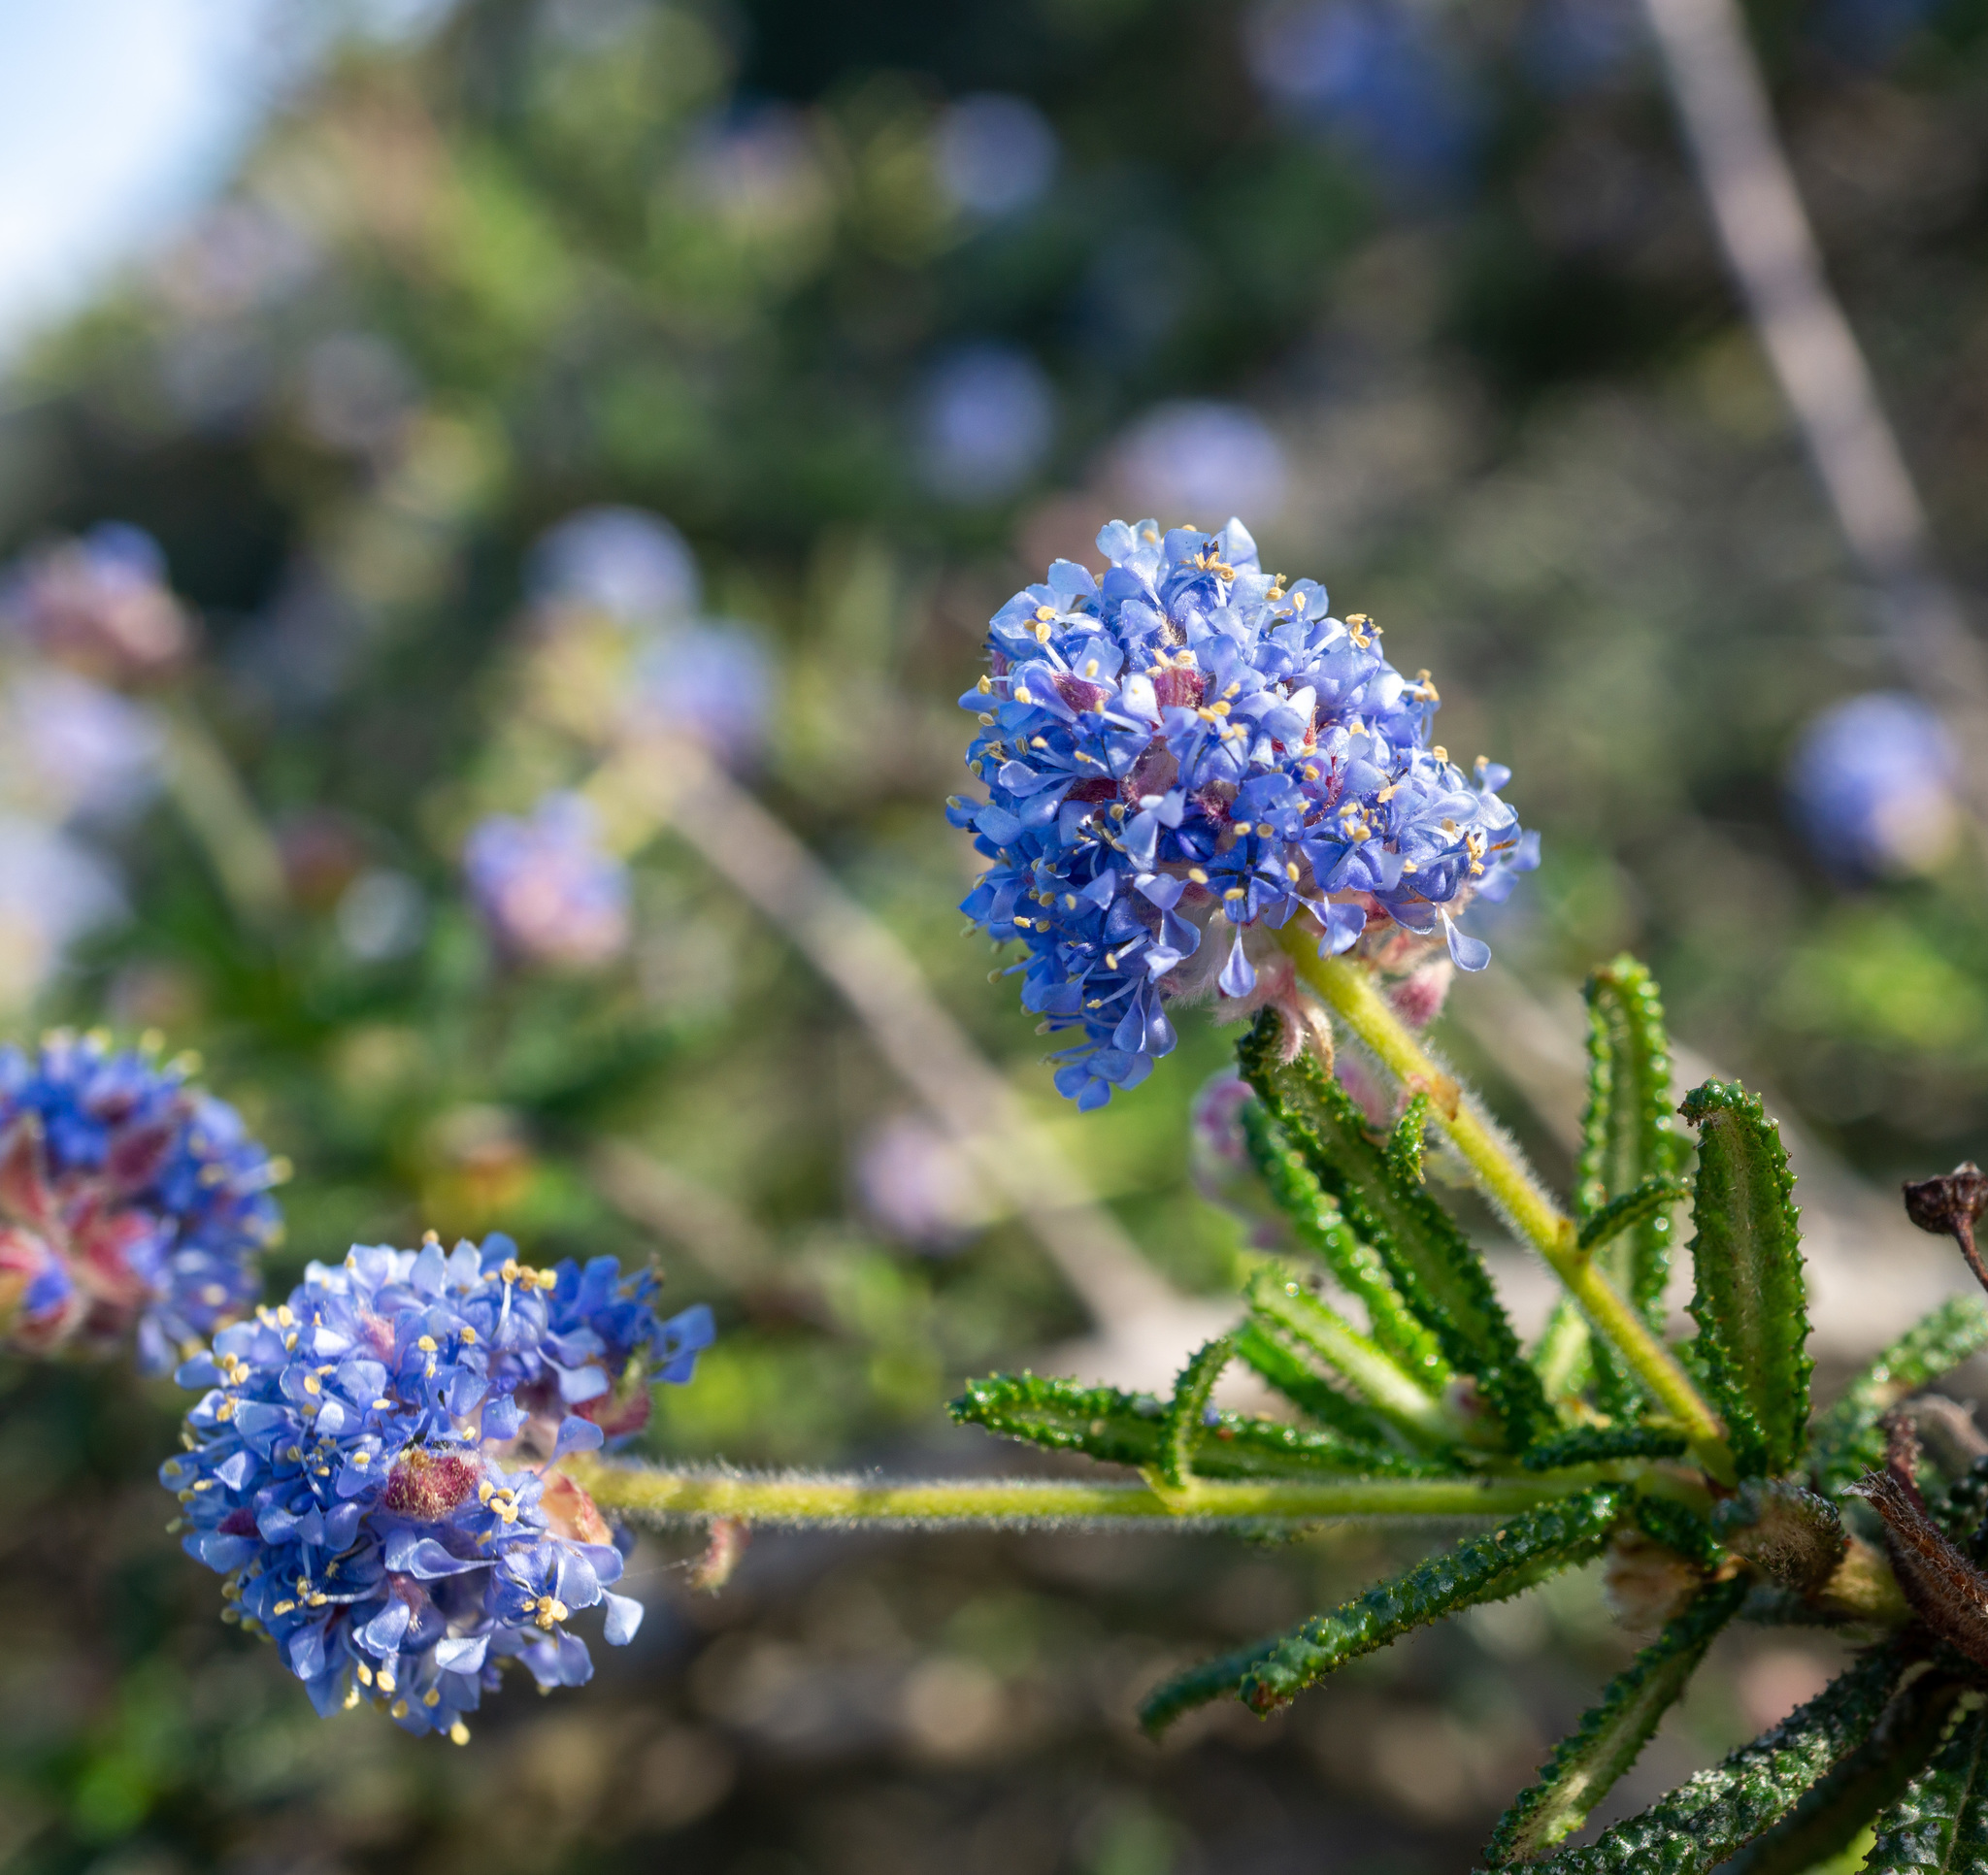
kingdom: Plantae
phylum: Tracheophyta
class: Magnoliopsida
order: Rosales
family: Rhamnaceae
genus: Ceanothus
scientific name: Ceanothus papillosus
